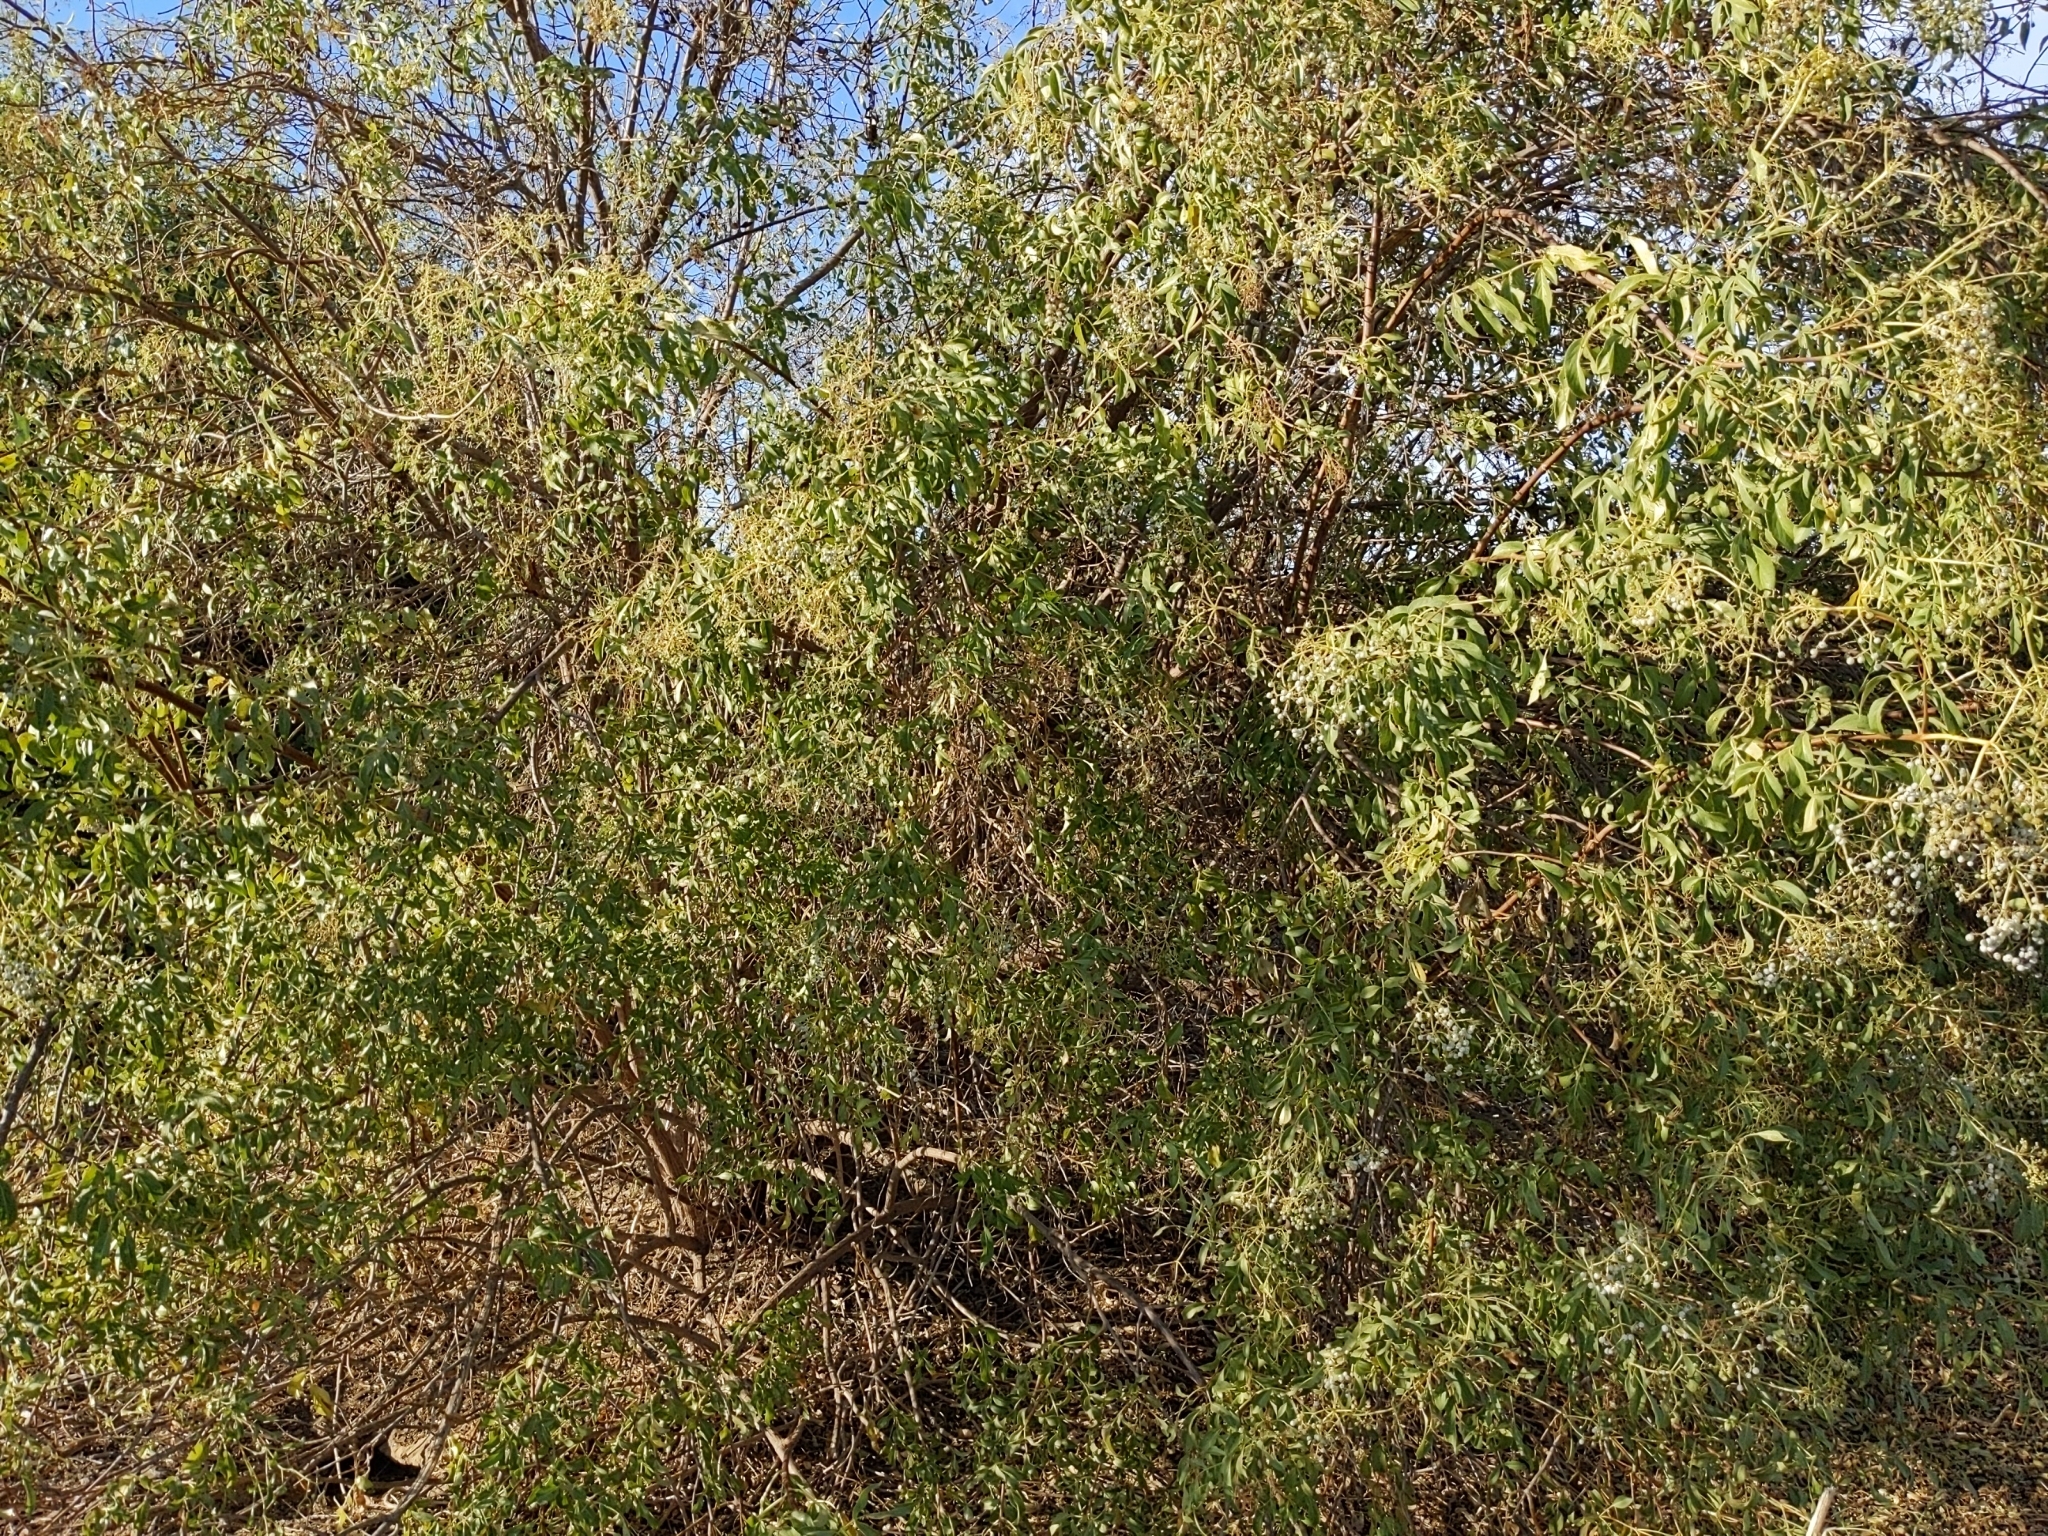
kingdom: Plantae
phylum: Tracheophyta
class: Magnoliopsida
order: Dipsacales
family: Viburnaceae
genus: Sambucus
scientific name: Sambucus cerulea
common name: Blue elder
